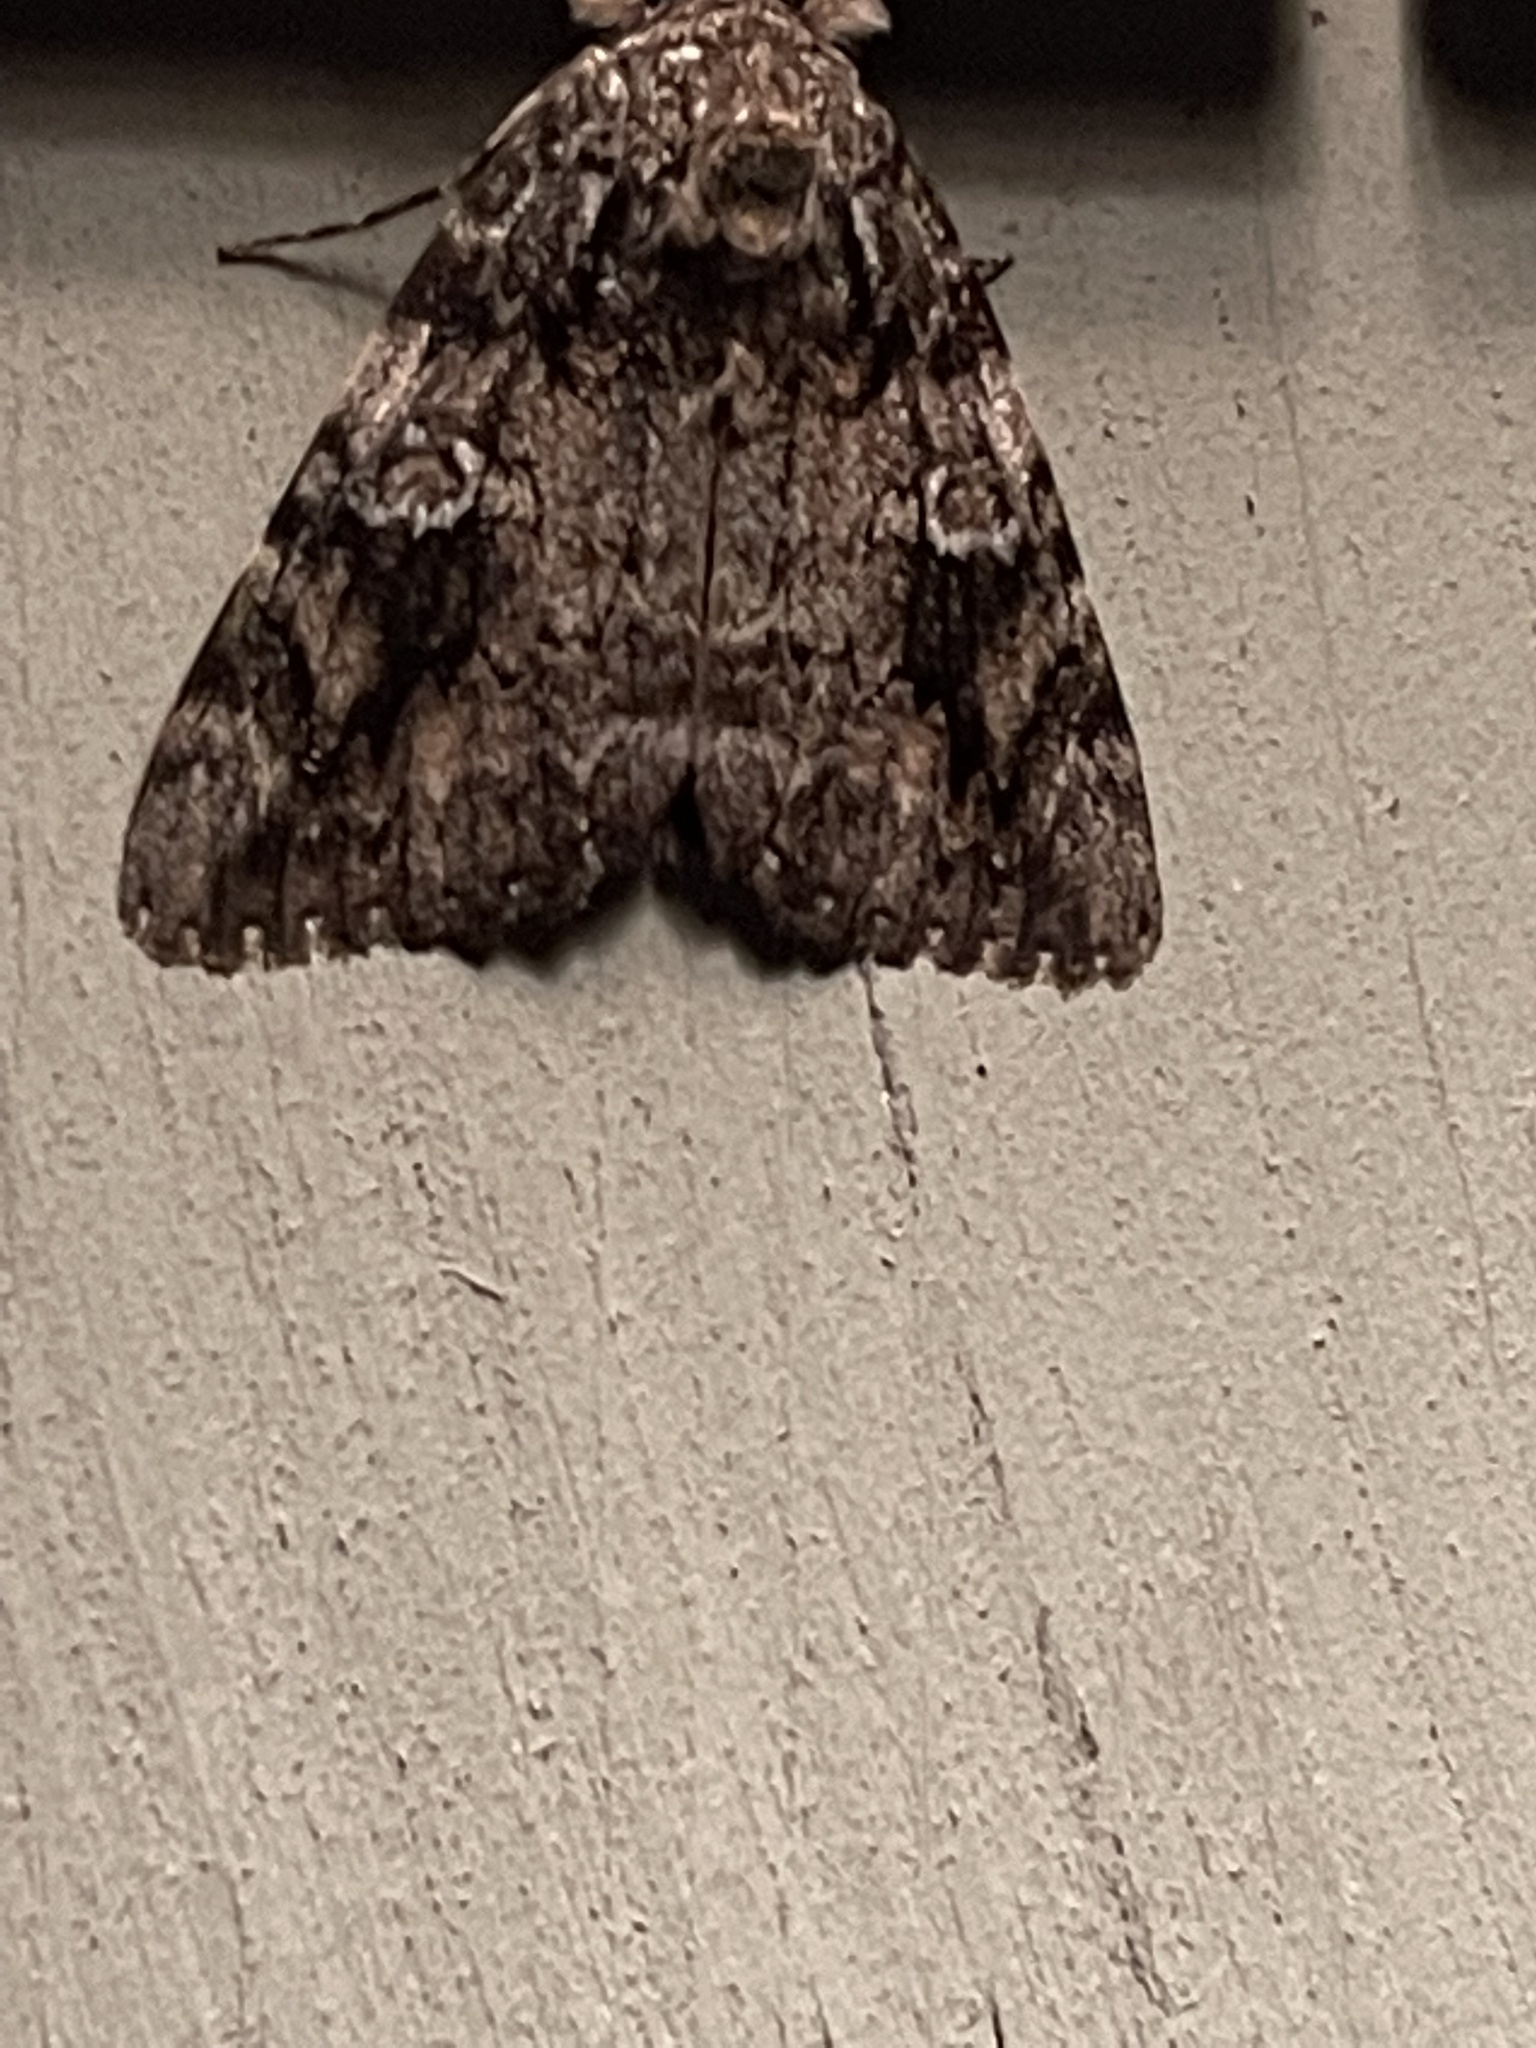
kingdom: Animalia
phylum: Arthropoda
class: Insecta
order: Lepidoptera
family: Erebidae
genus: Catocala
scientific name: Catocala ilia
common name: Ilia underwing
